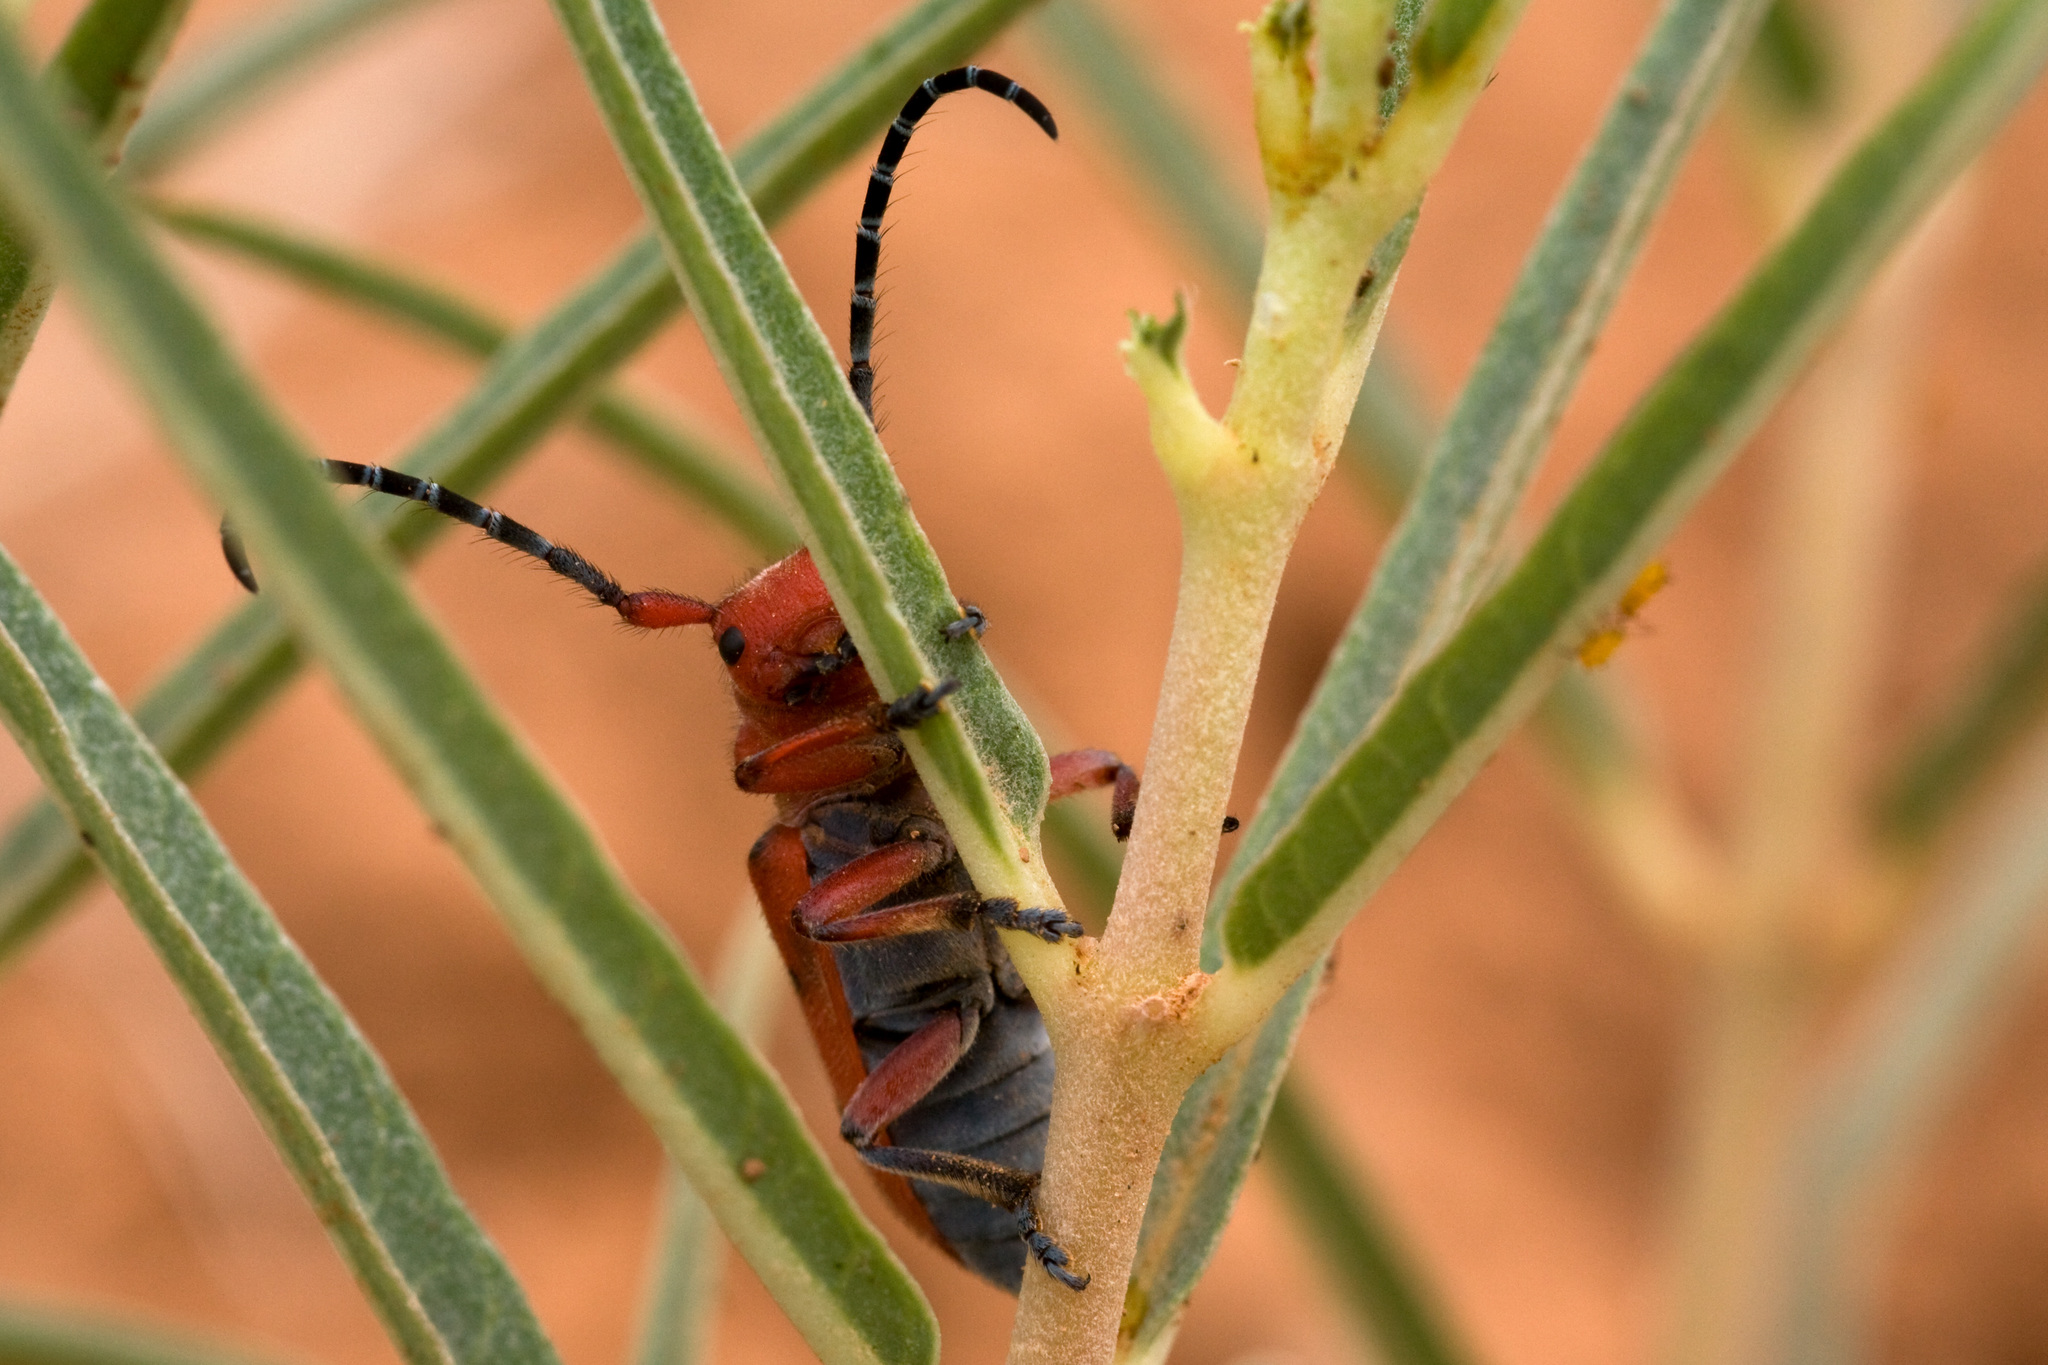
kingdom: Animalia
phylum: Arthropoda
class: Insecta
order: Coleoptera
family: Cerambycidae
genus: Tetraopes
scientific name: Tetraopes femoratus
